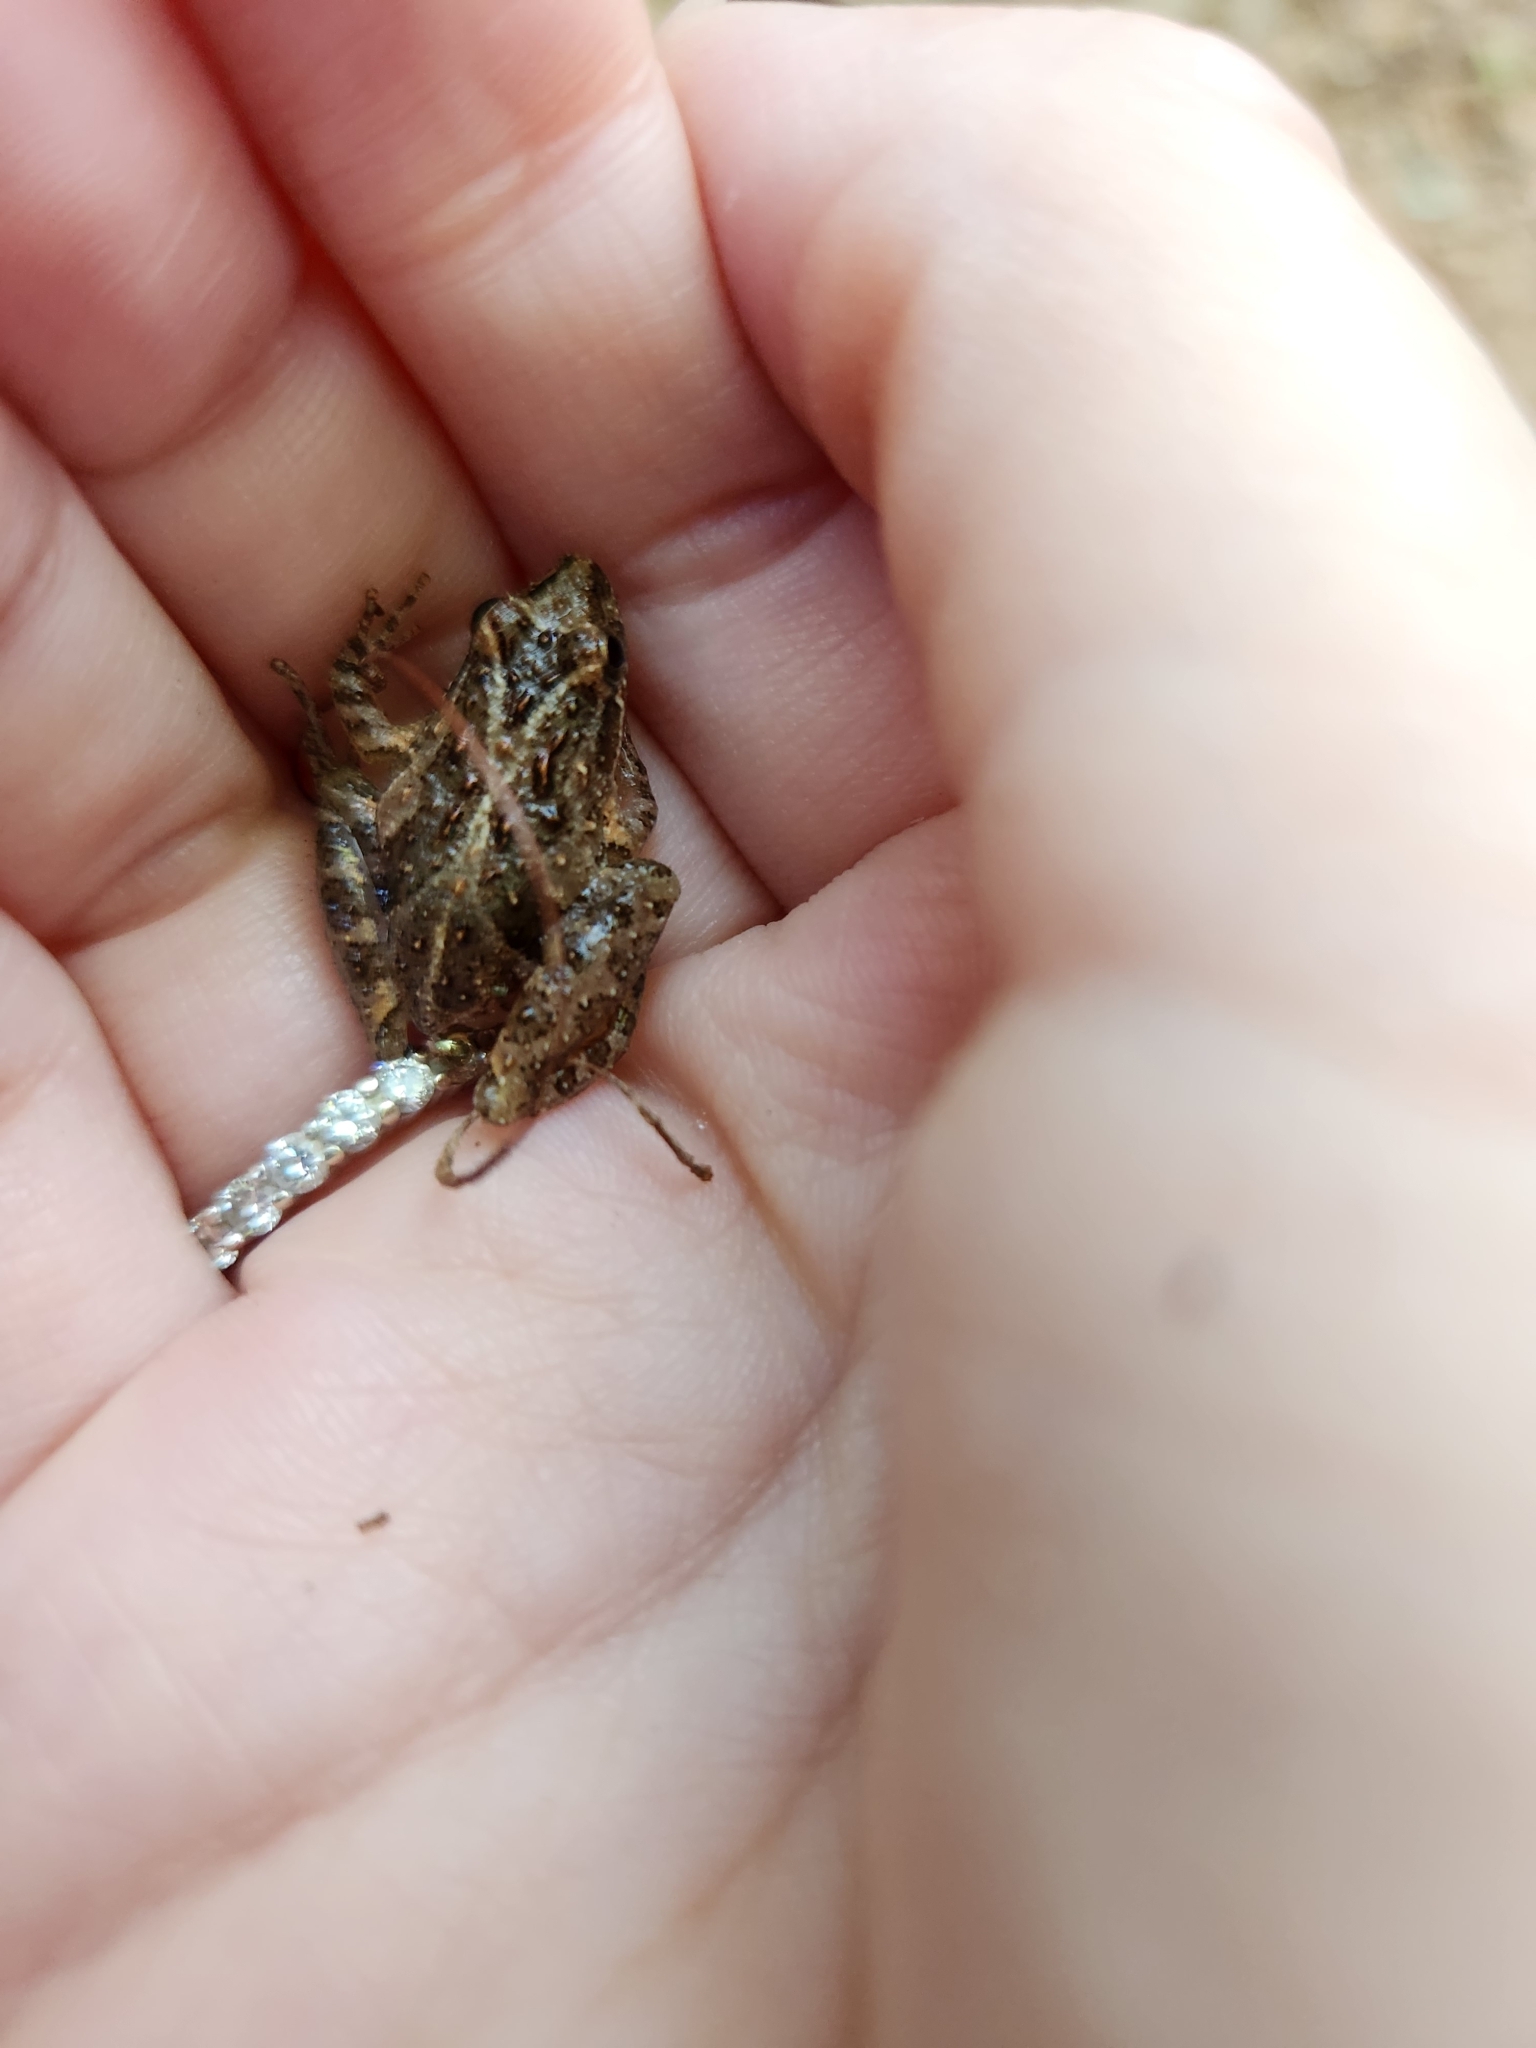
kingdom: Animalia
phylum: Chordata
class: Amphibia
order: Anura
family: Hylidae
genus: Acris
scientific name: Acris gryllus
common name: Southern cricket frog
